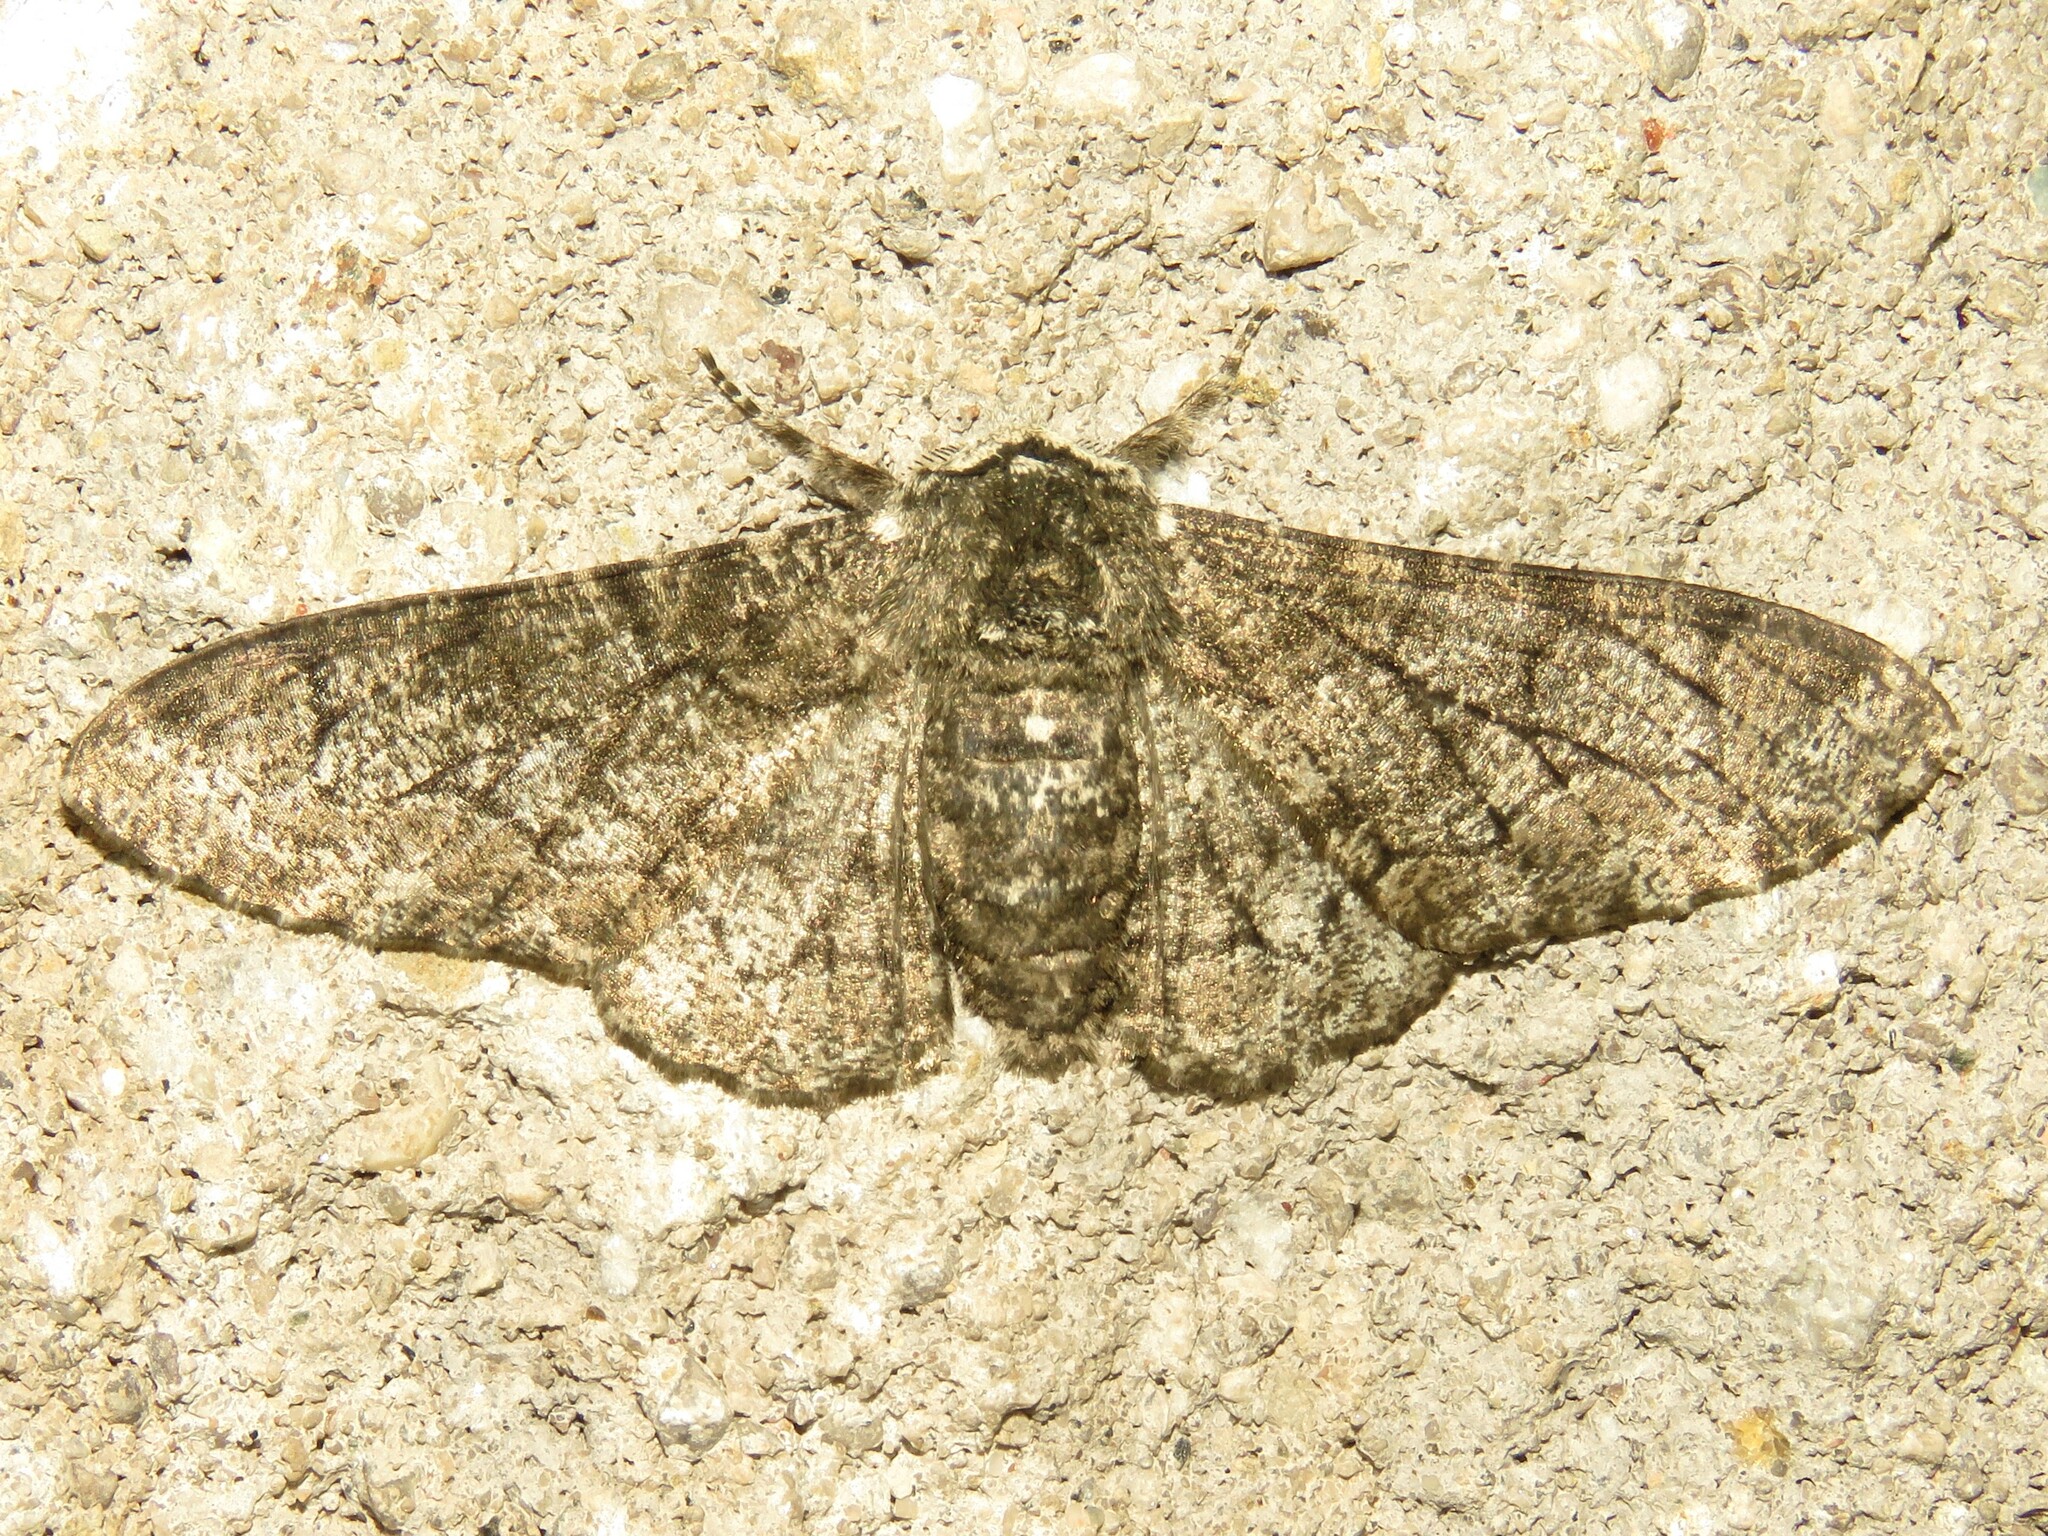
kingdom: Animalia
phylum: Arthropoda
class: Insecta
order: Lepidoptera
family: Geometridae
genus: Biston
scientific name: Biston betularia
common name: Peppered moth
